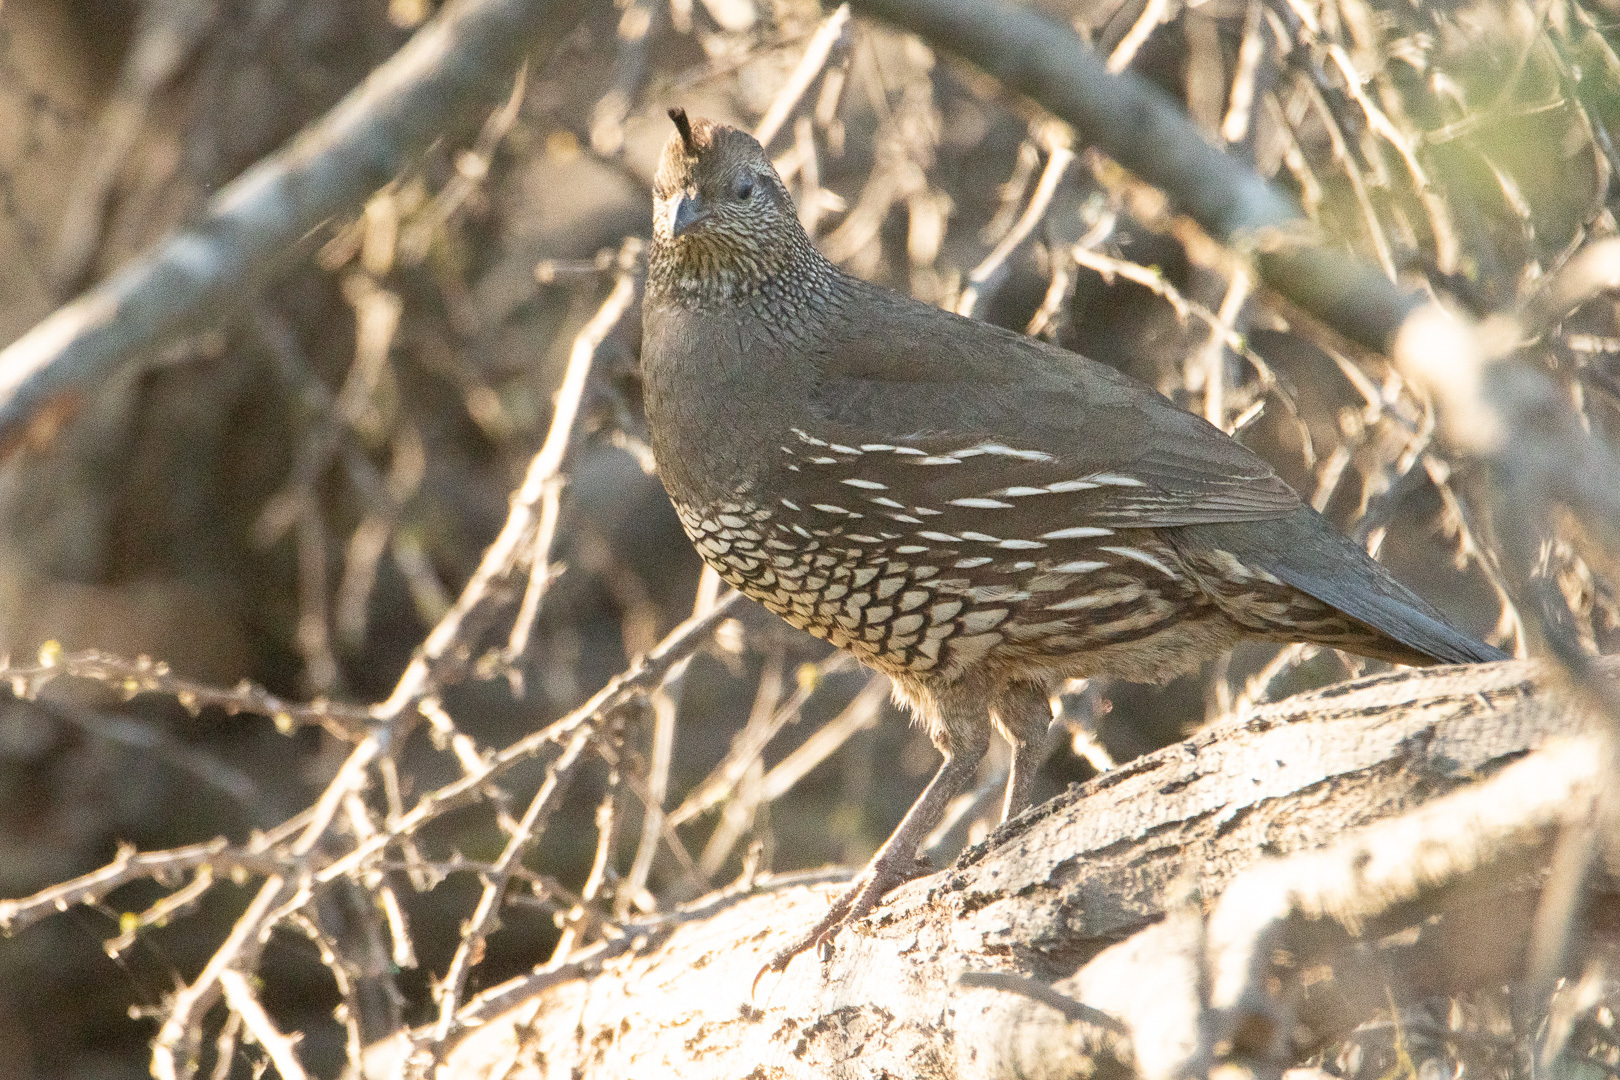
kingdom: Animalia
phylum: Chordata
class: Aves
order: Galliformes
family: Odontophoridae
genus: Callipepla
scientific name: Callipepla californica
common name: California quail
